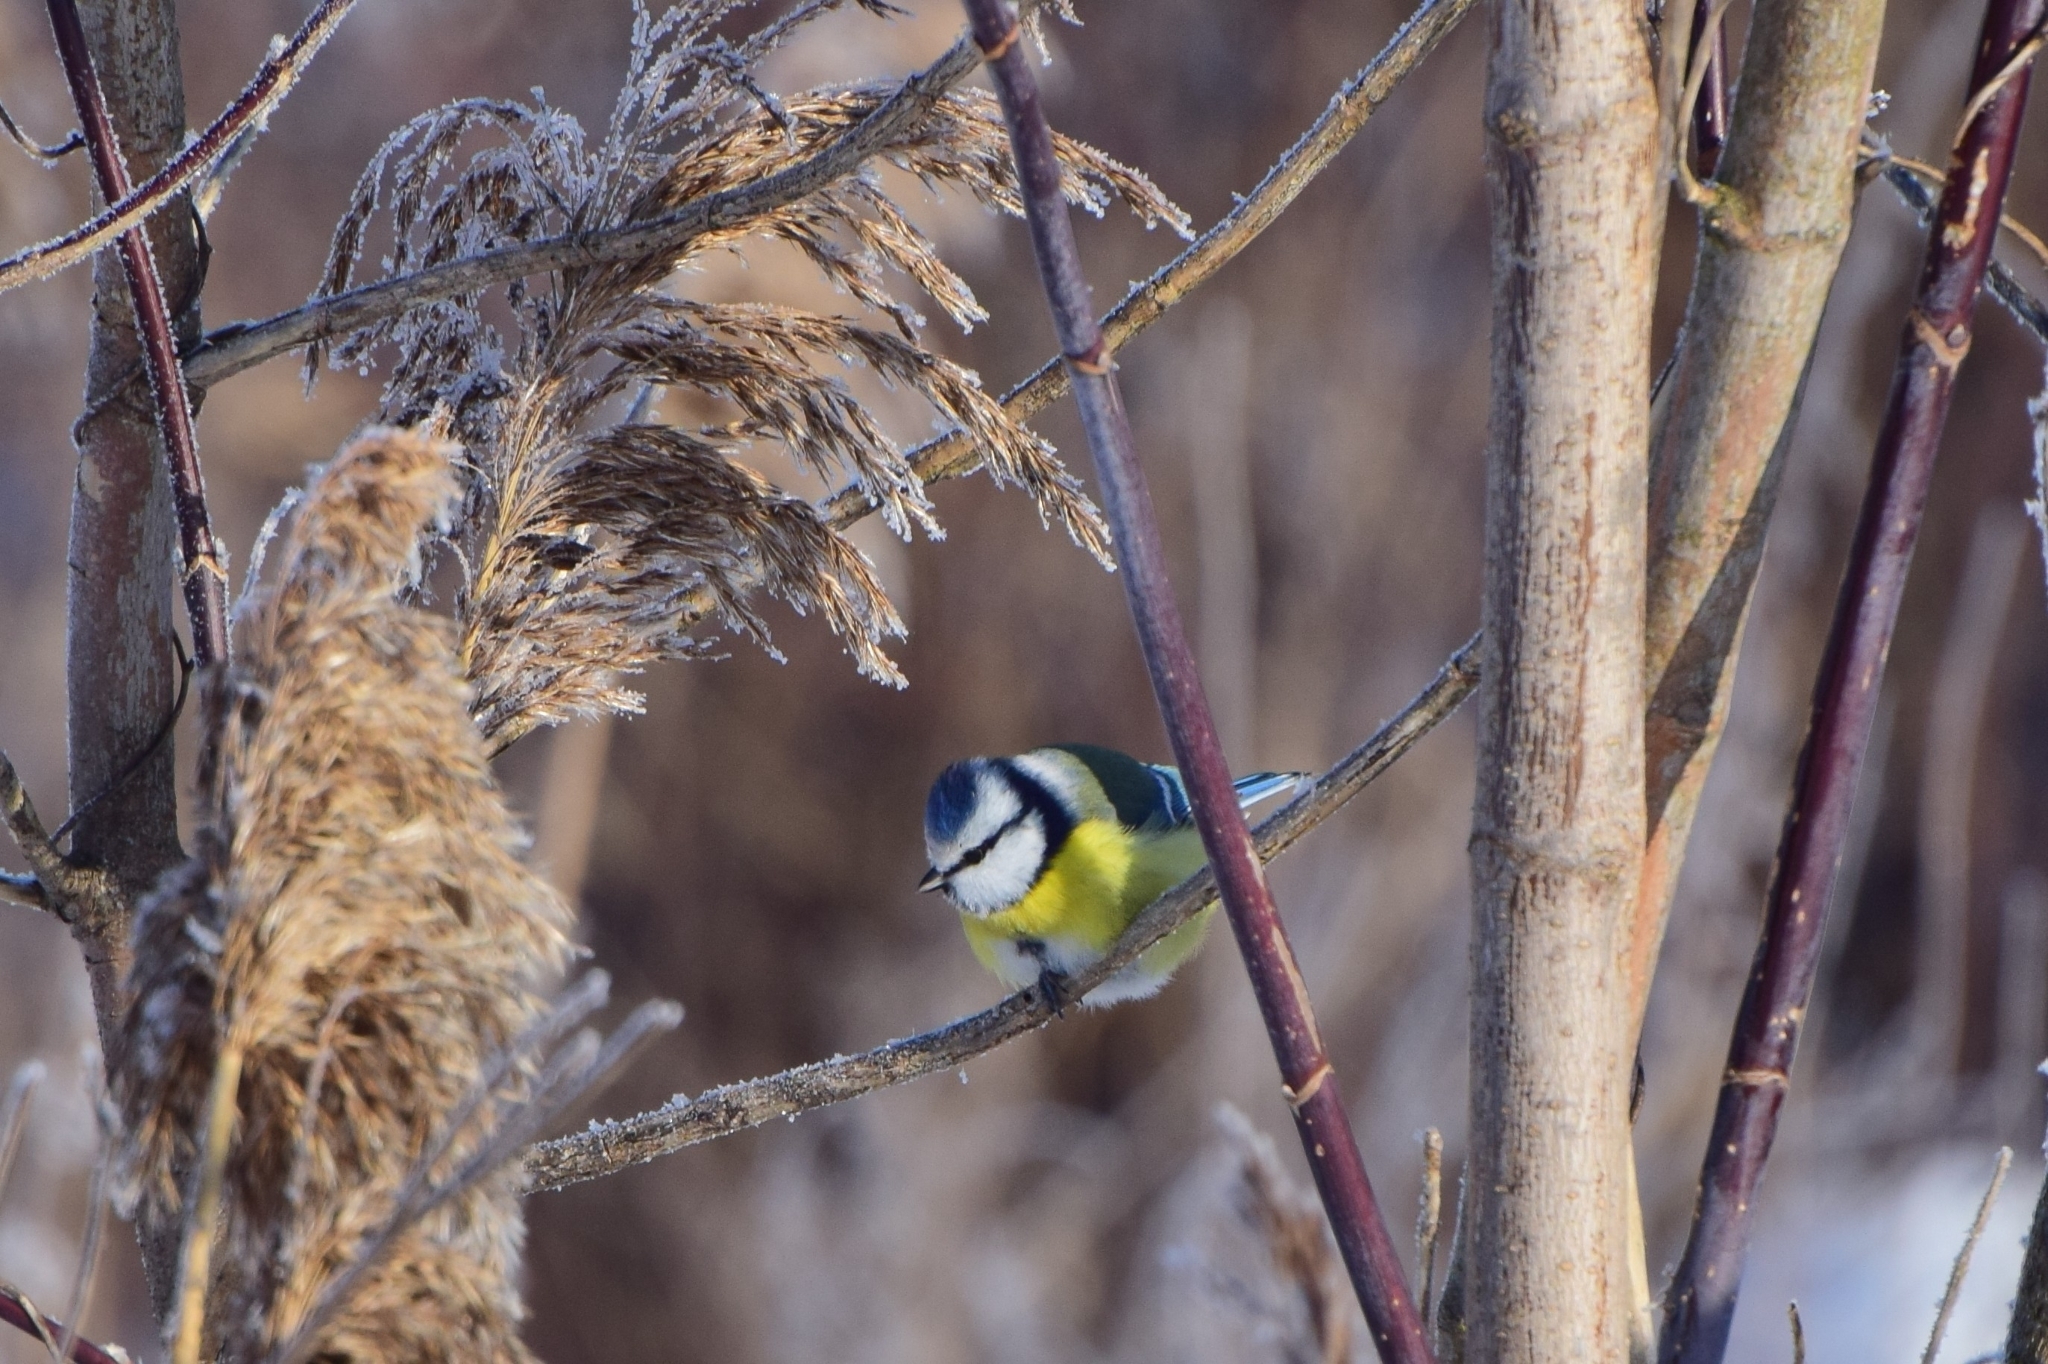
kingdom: Animalia
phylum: Chordata
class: Aves
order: Passeriformes
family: Paridae
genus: Cyanistes
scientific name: Cyanistes caeruleus
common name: Eurasian blue tit
